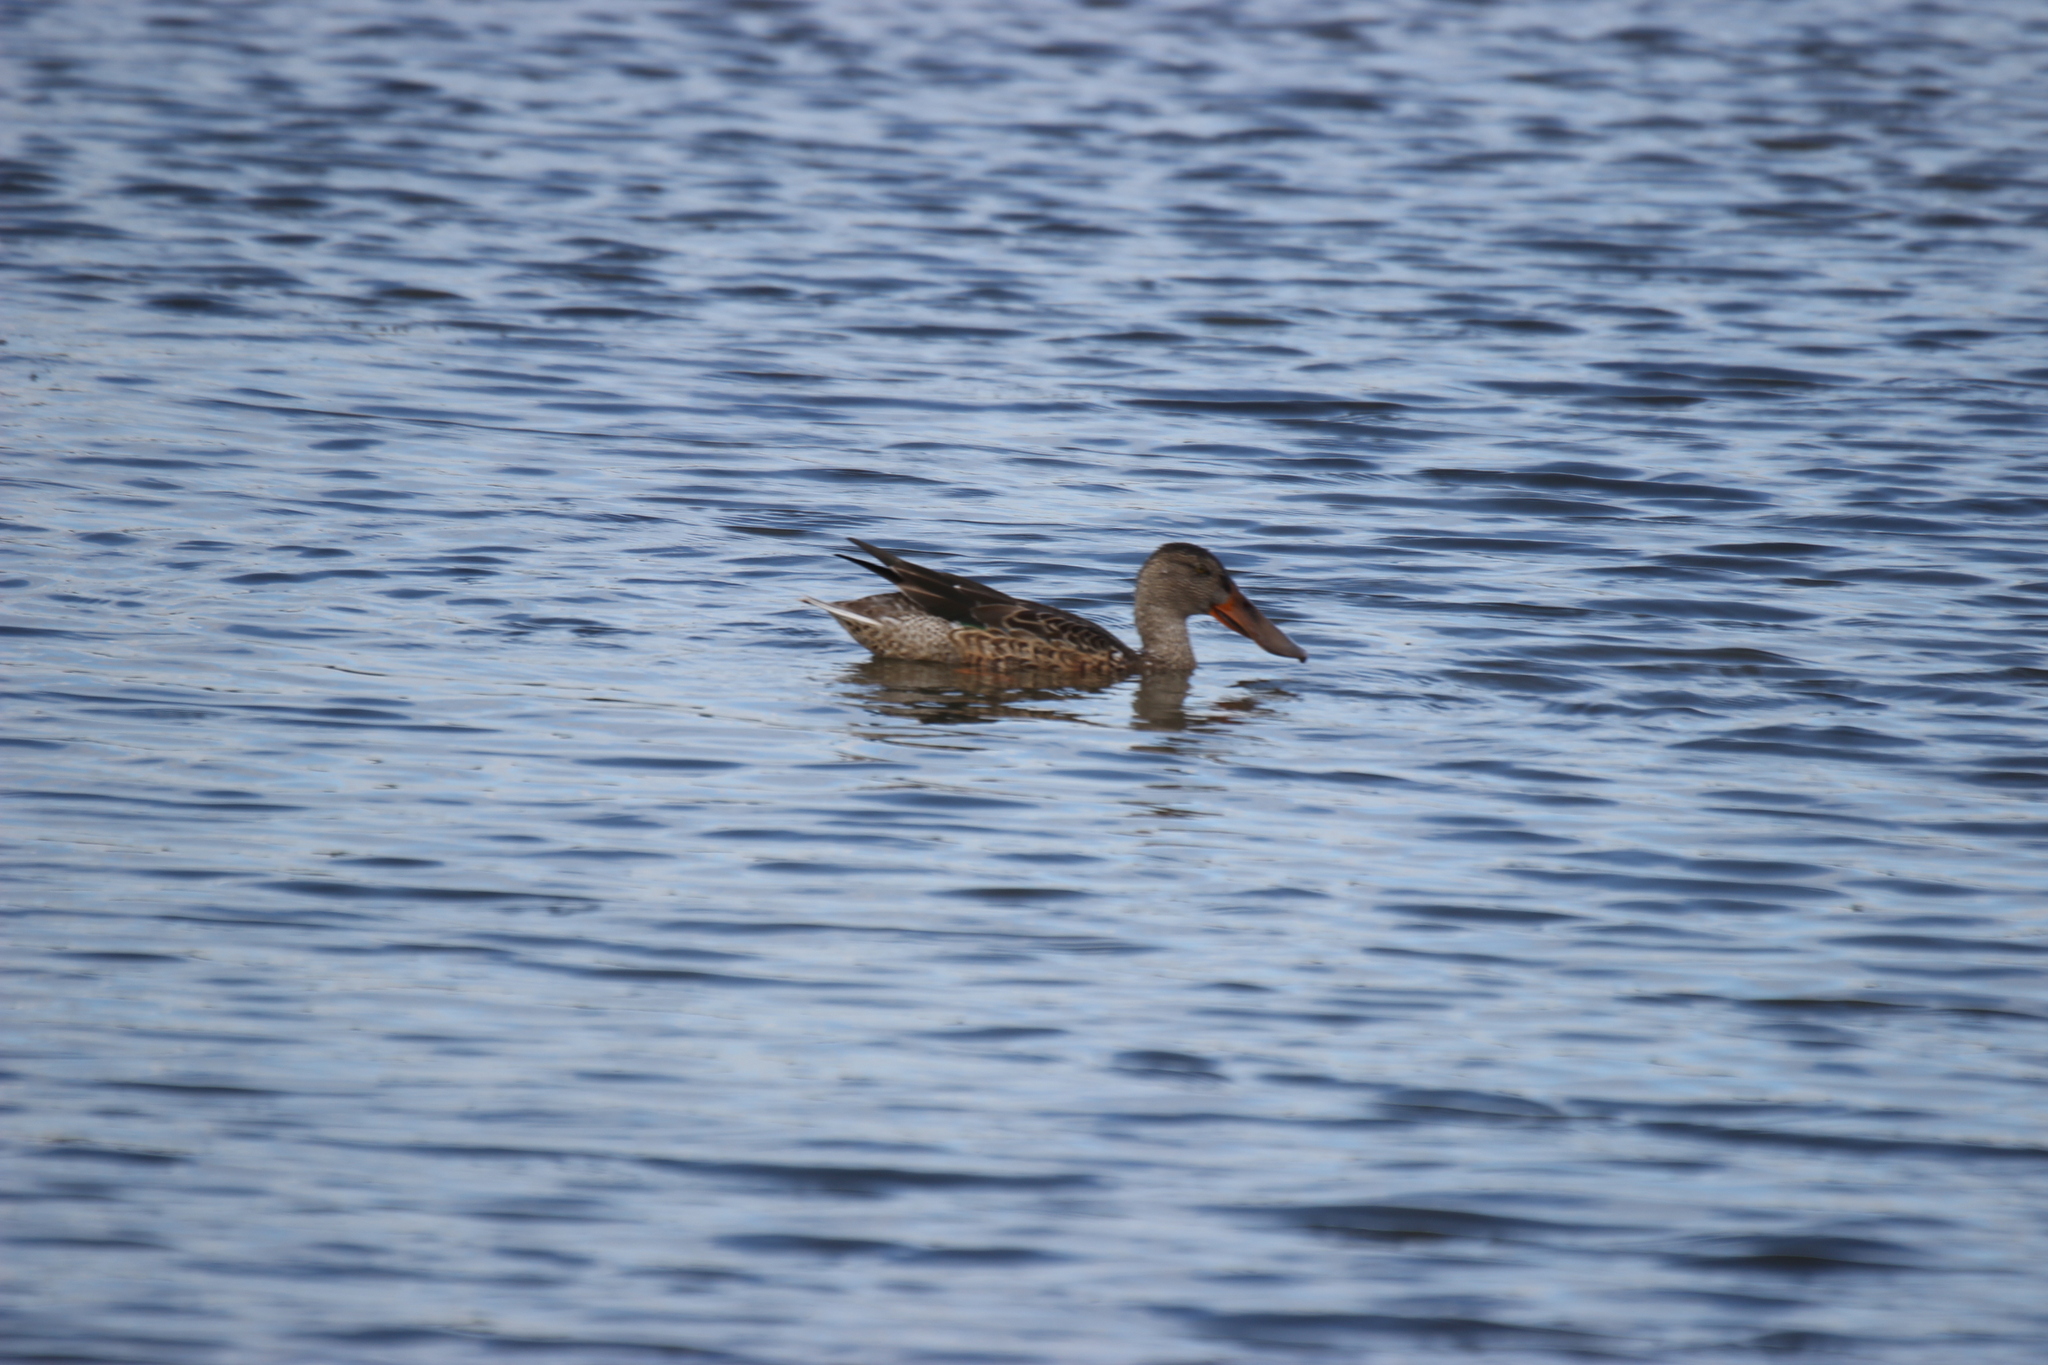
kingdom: Animalia
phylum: Chordata
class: Aves
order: Anseriformes
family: Anatidae
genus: Spatula
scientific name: Spatula clypeata
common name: Northern shoveler
